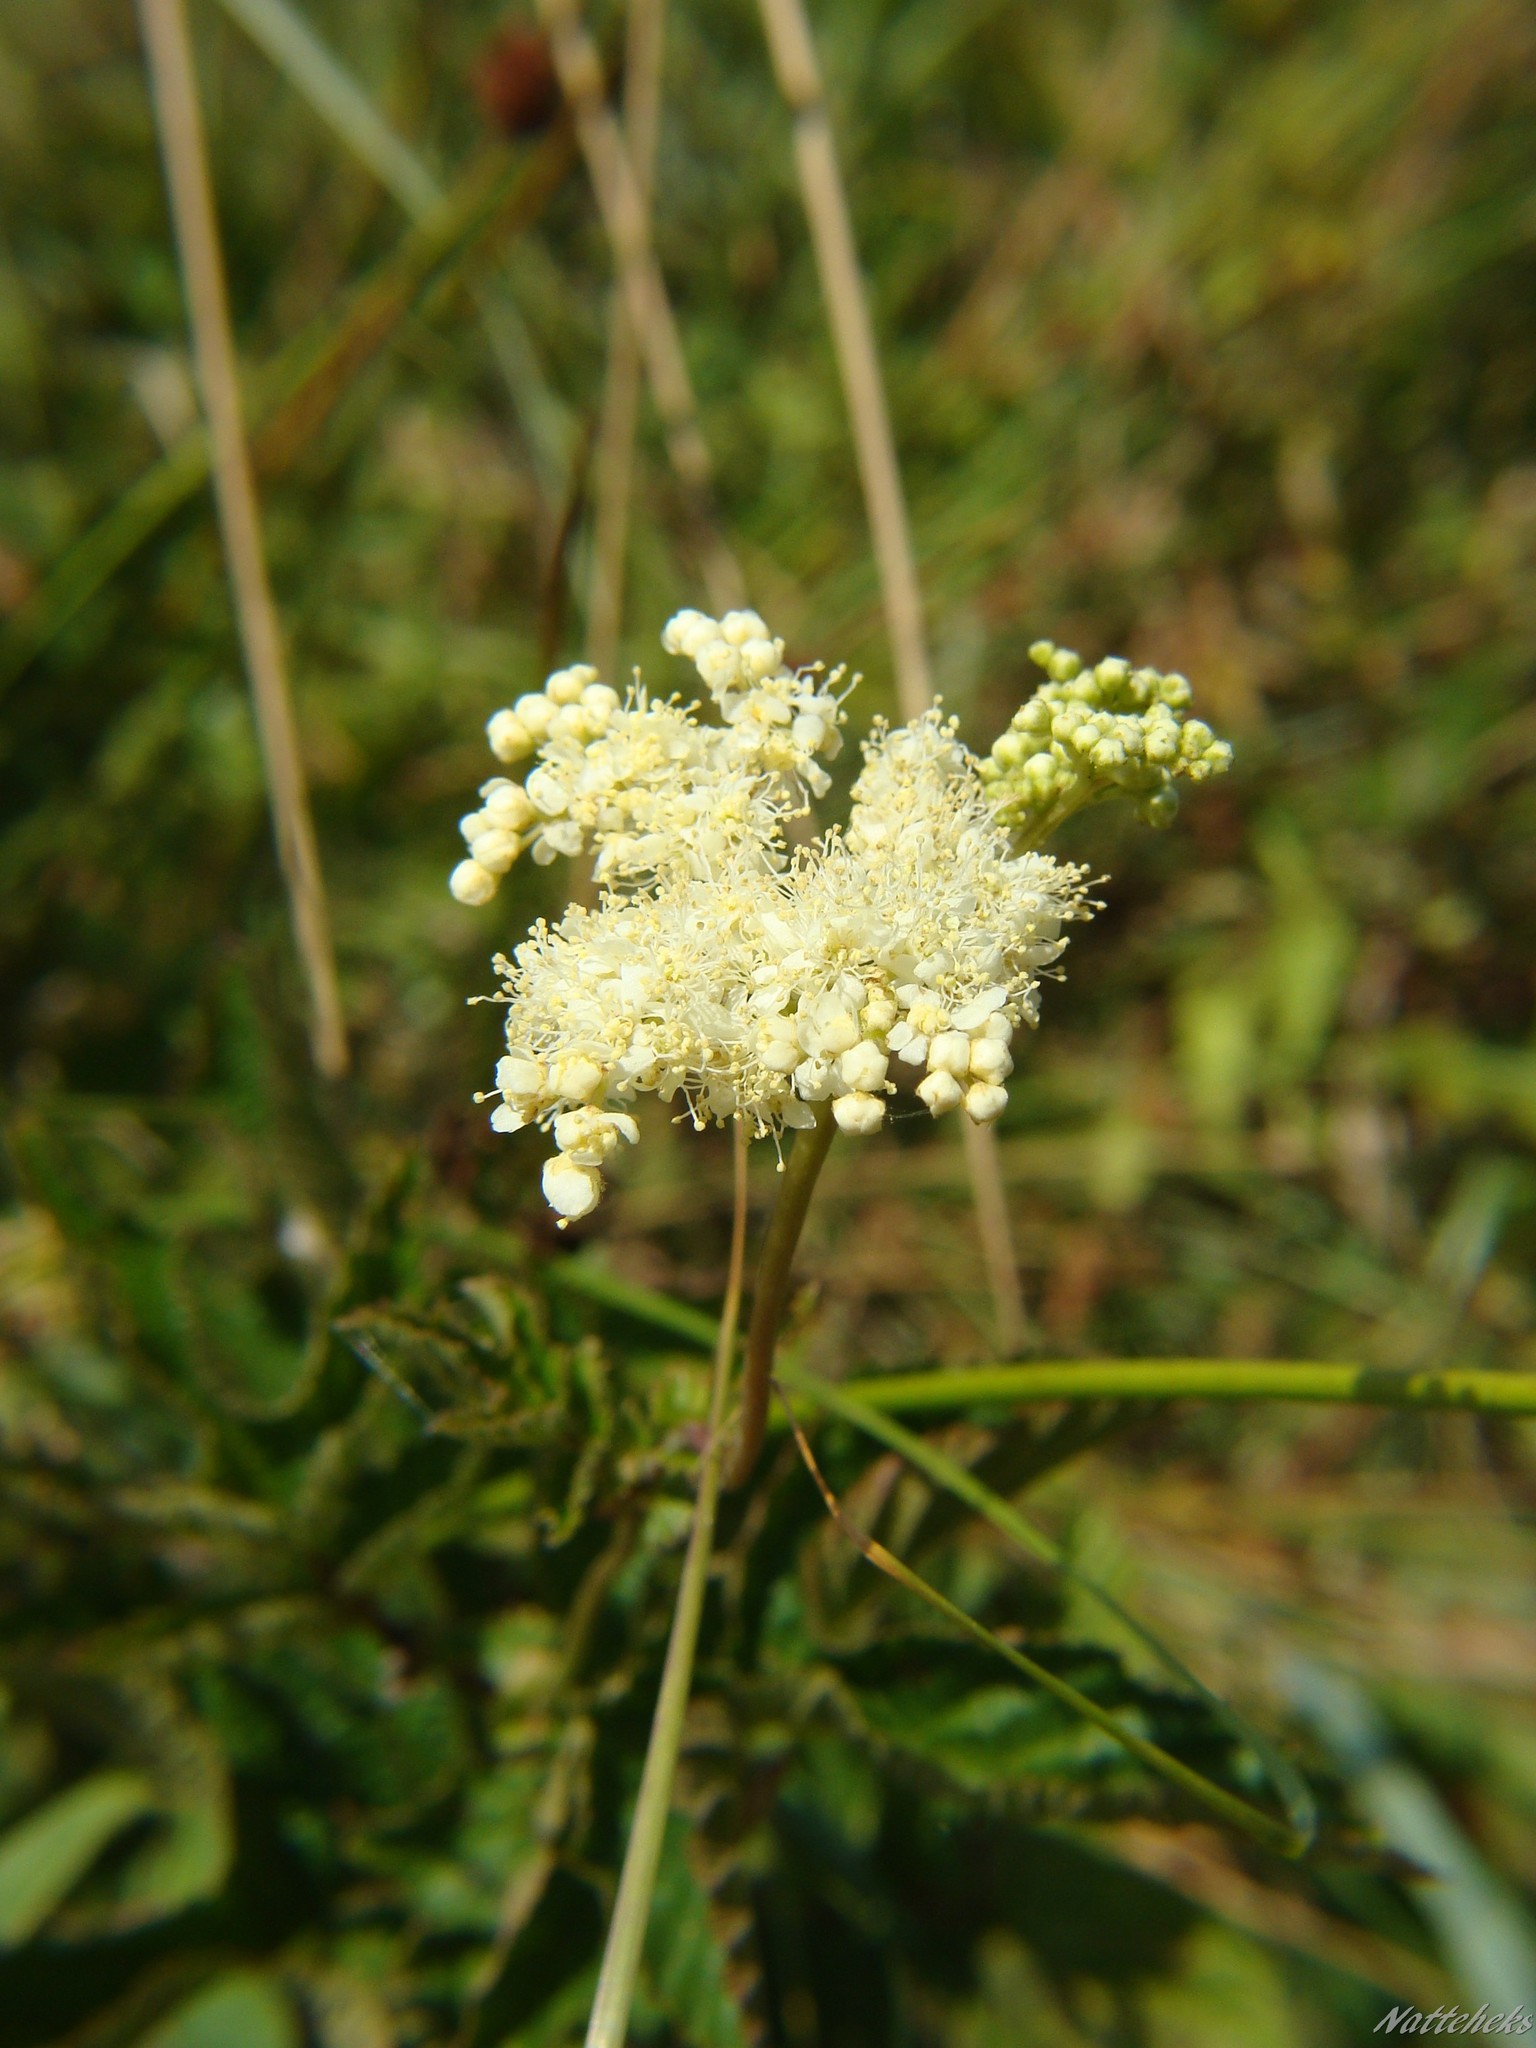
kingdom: Plantae
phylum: Tracheophyta
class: Magnoliopsida
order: Rosales
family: Rosaceae
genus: Filipendula
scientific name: Filipendula ulmaria
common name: Meadowsweet
